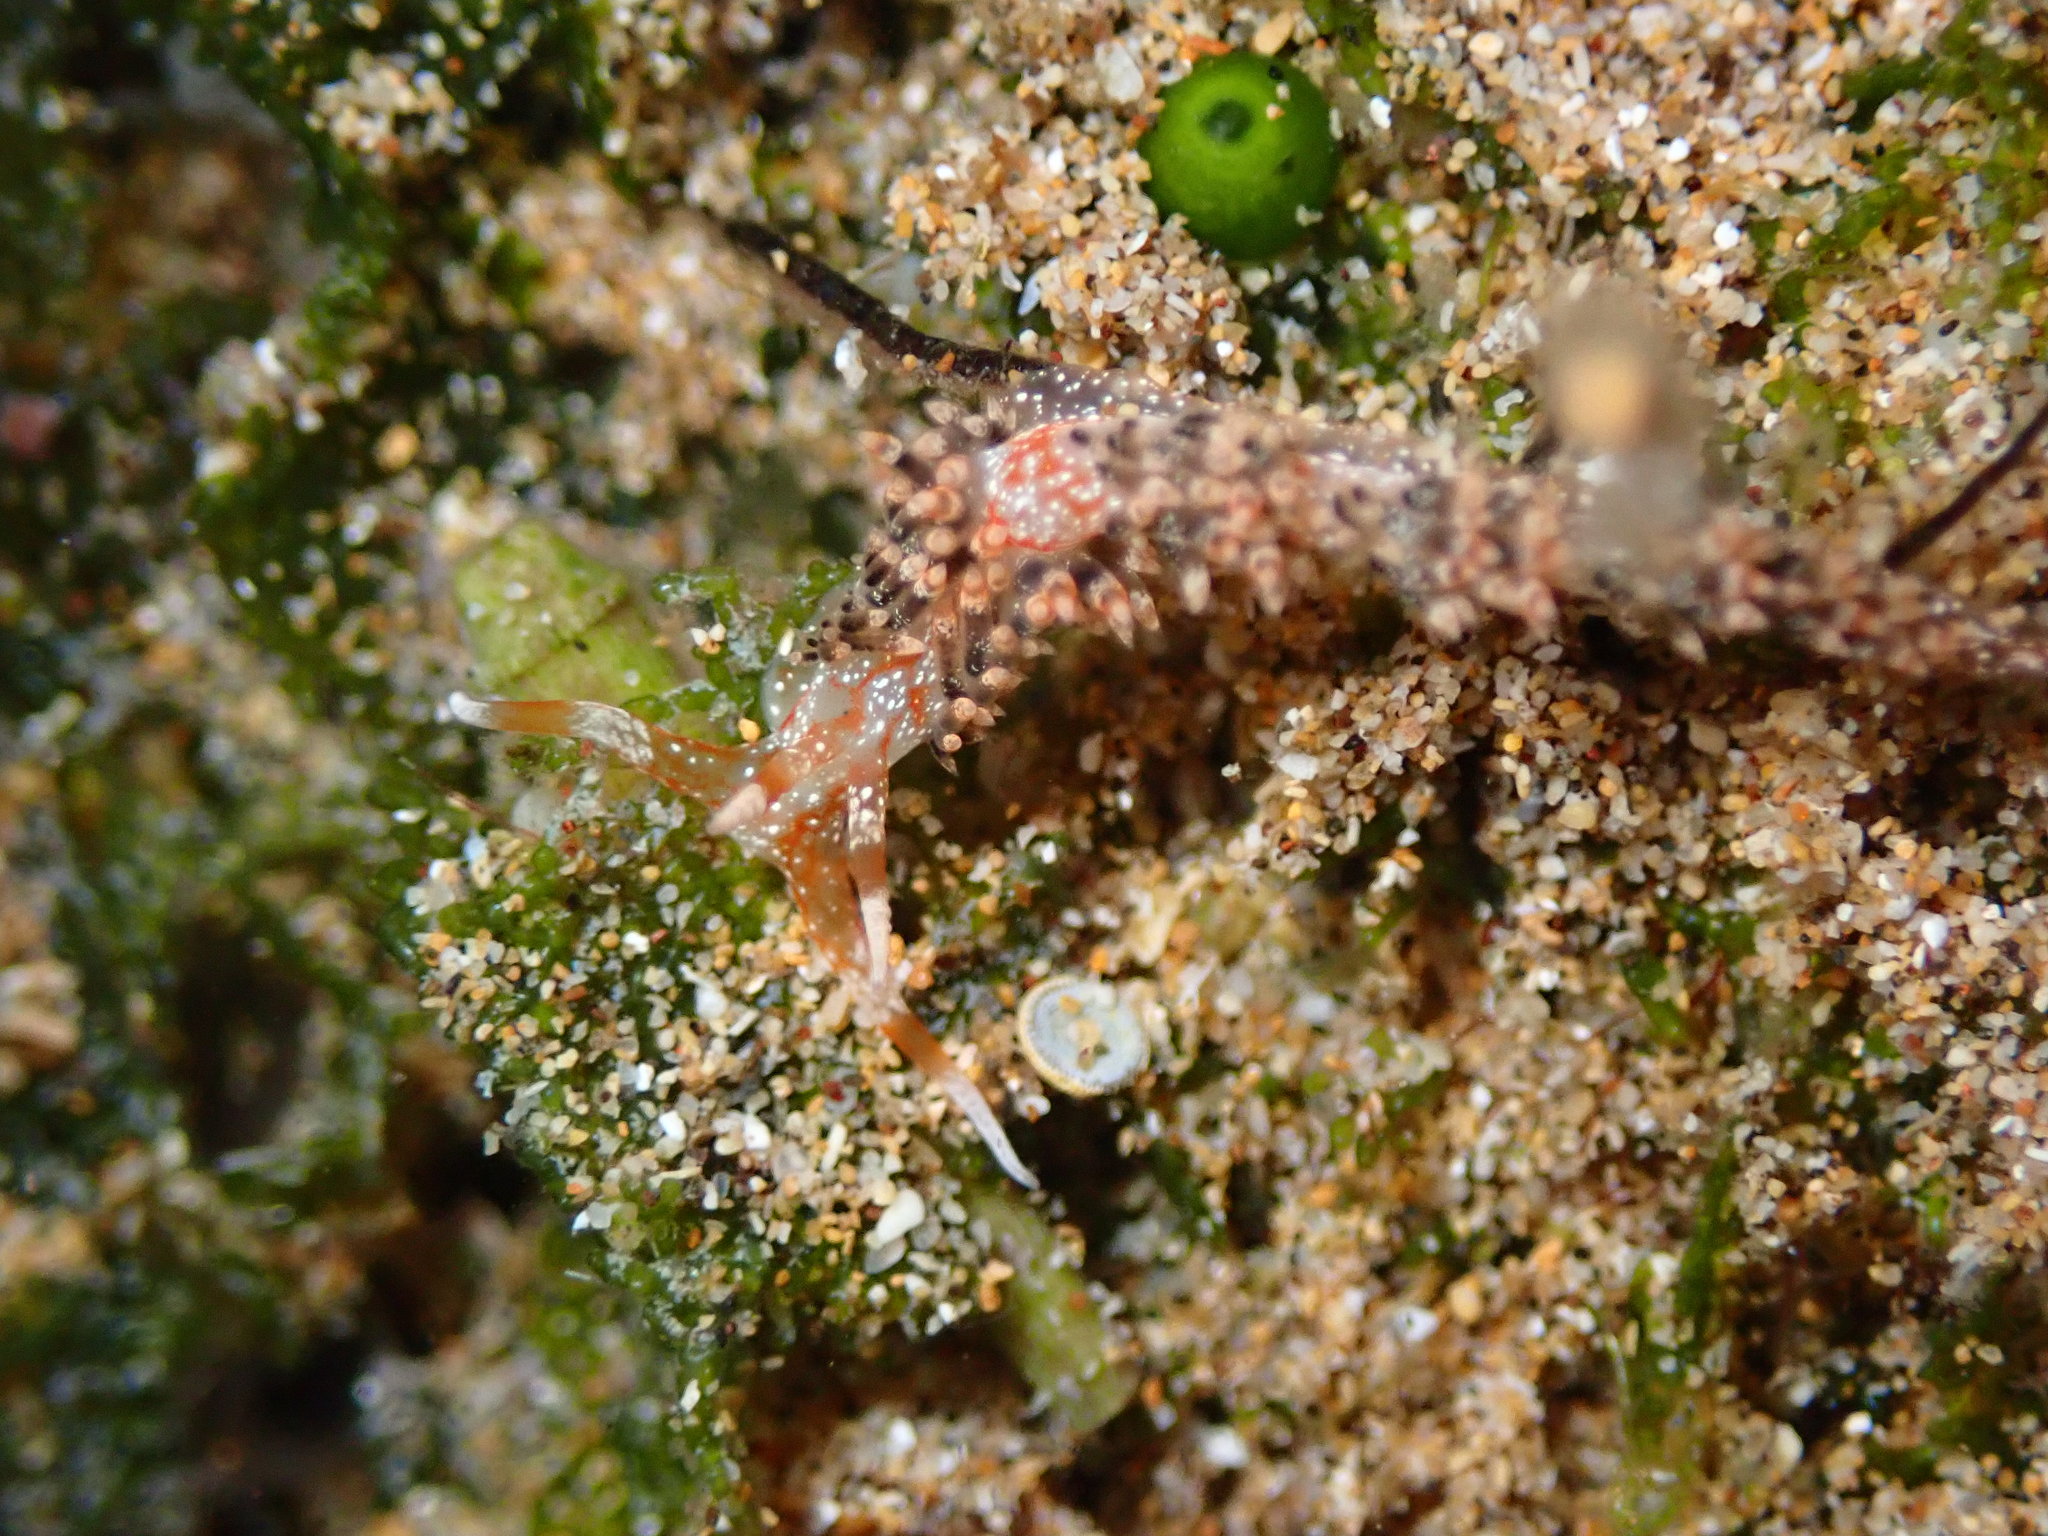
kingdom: Animalia
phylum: Mollusca
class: Gastropoda
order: Nudibranchia
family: Facelinidae
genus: Phidiana
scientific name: Phidiana semidecora
